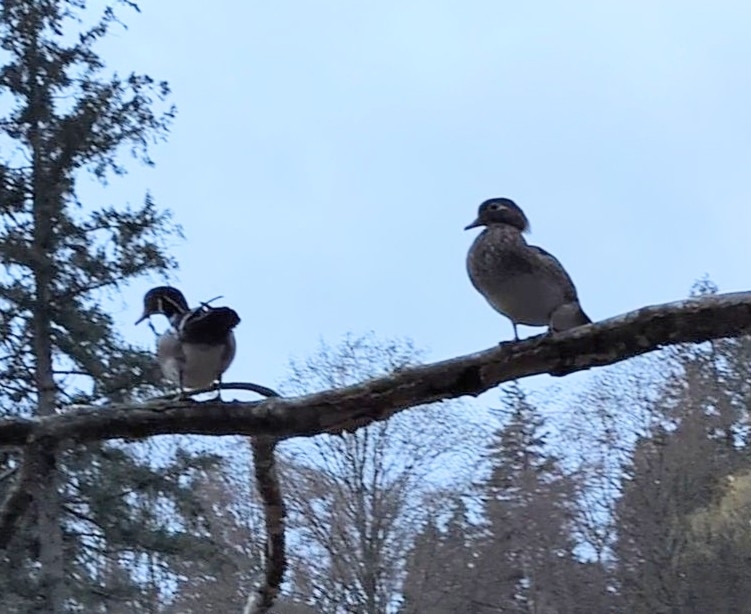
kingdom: Animalia
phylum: Chordata
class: Aves
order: Anseriformes
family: Anatidae
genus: Aix
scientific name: Aix sponsa
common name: Wood duck
